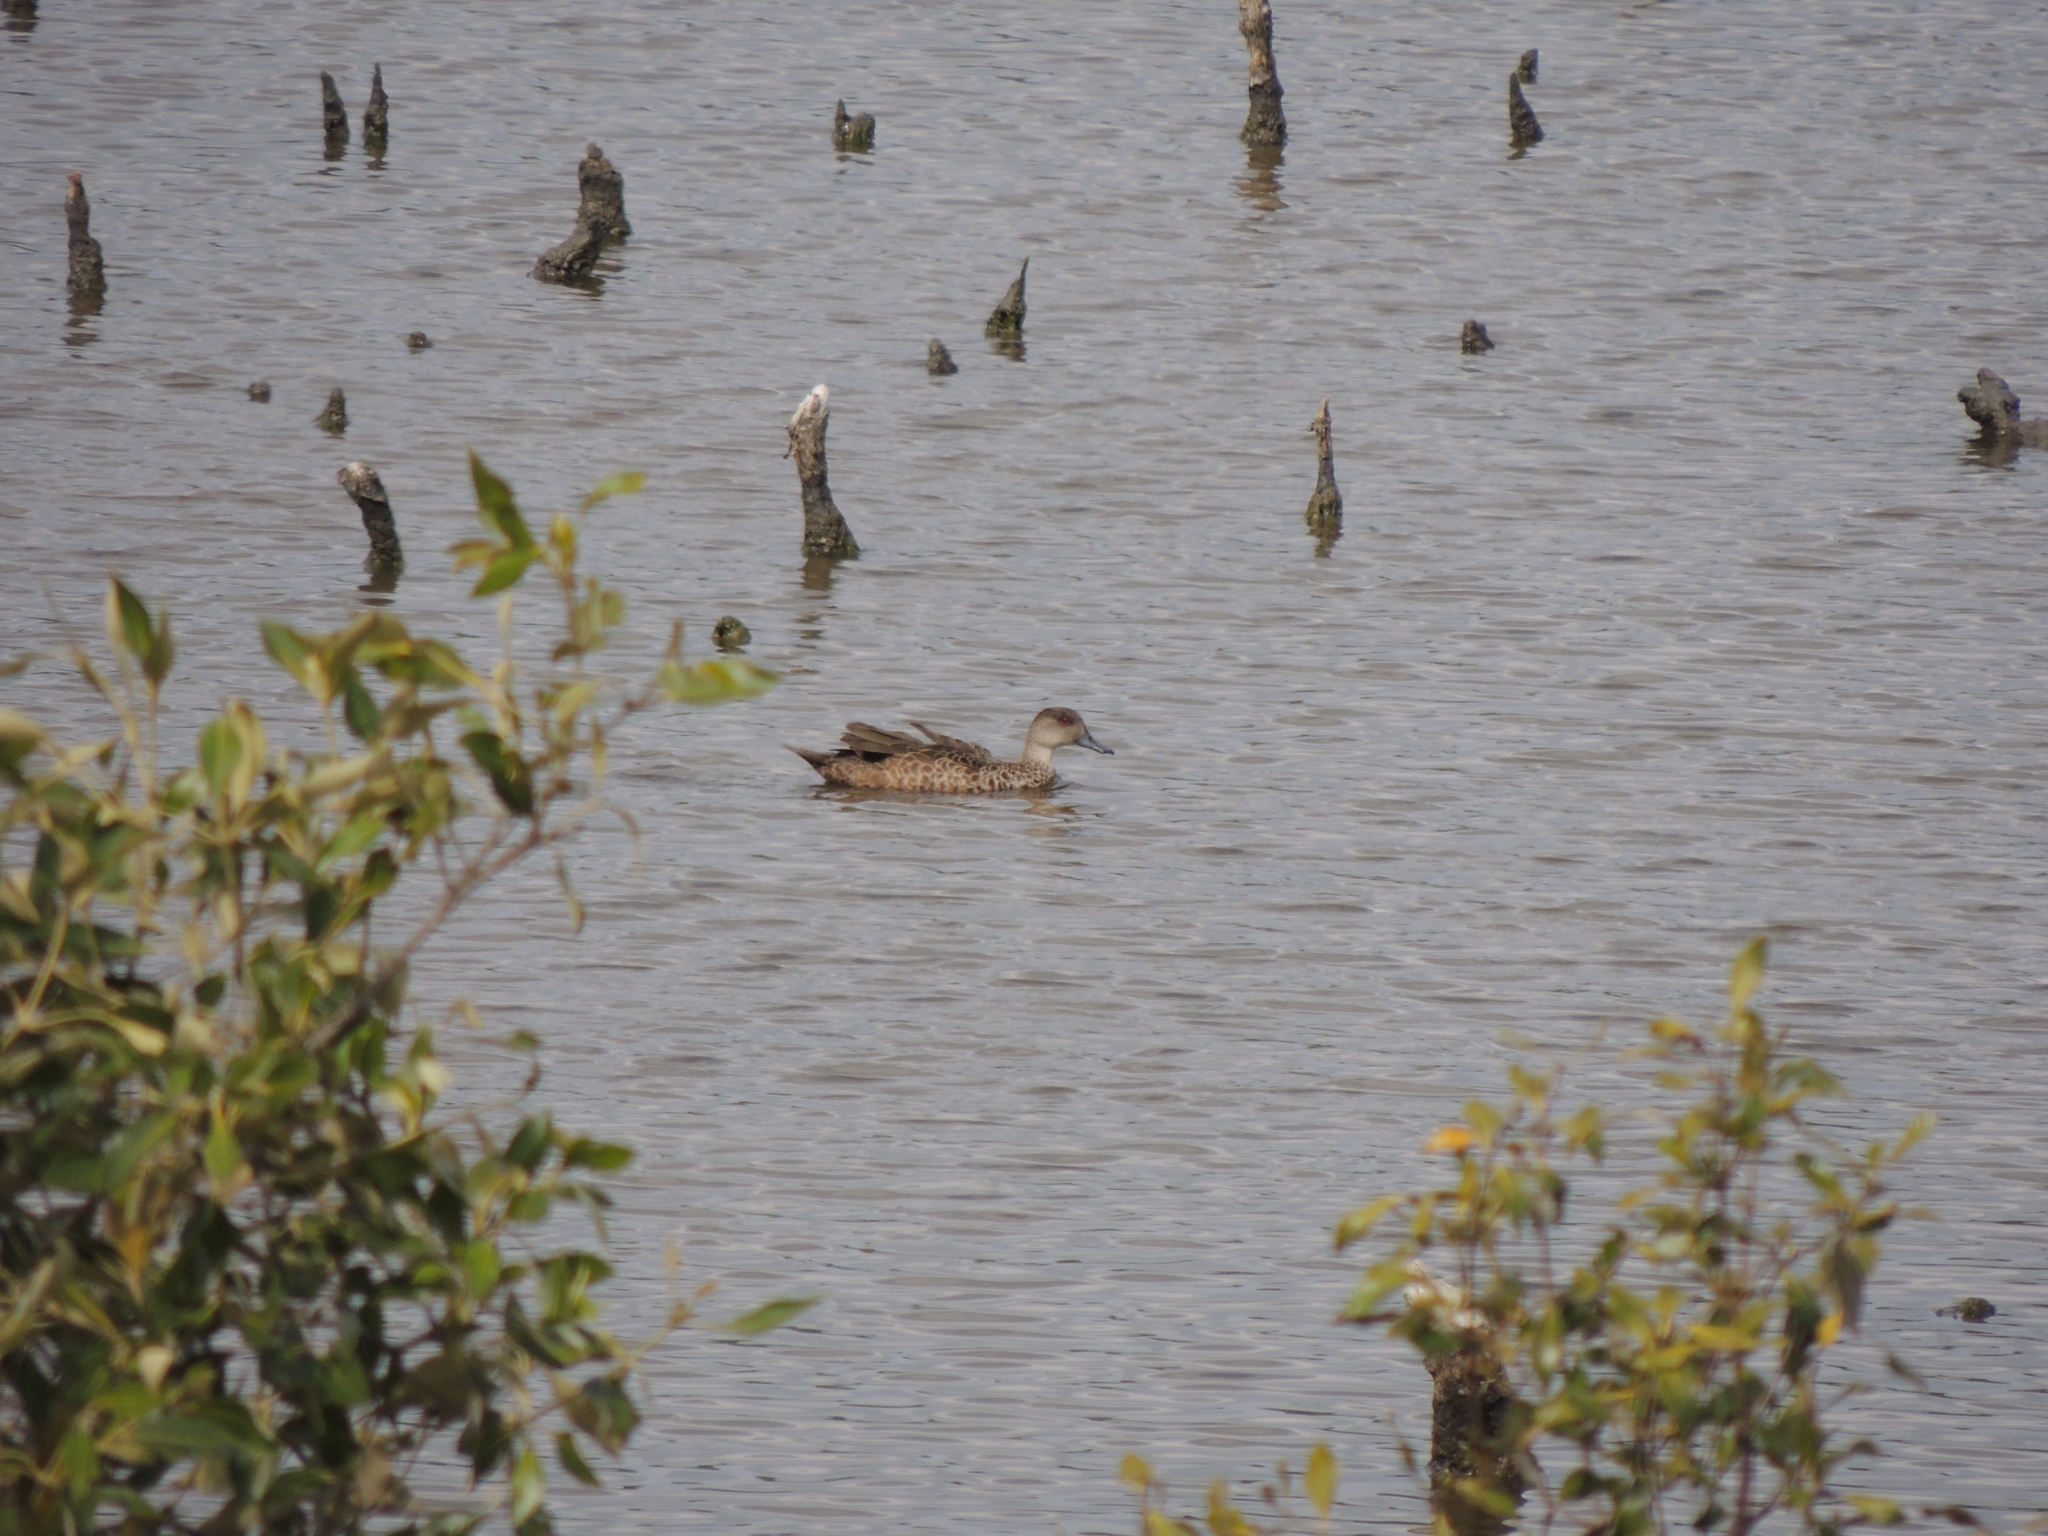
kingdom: Animalia
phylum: Chordata
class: Aves
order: Anseriformes
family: Anatidae
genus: Anas
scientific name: Anas gracilis
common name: Grey teal
